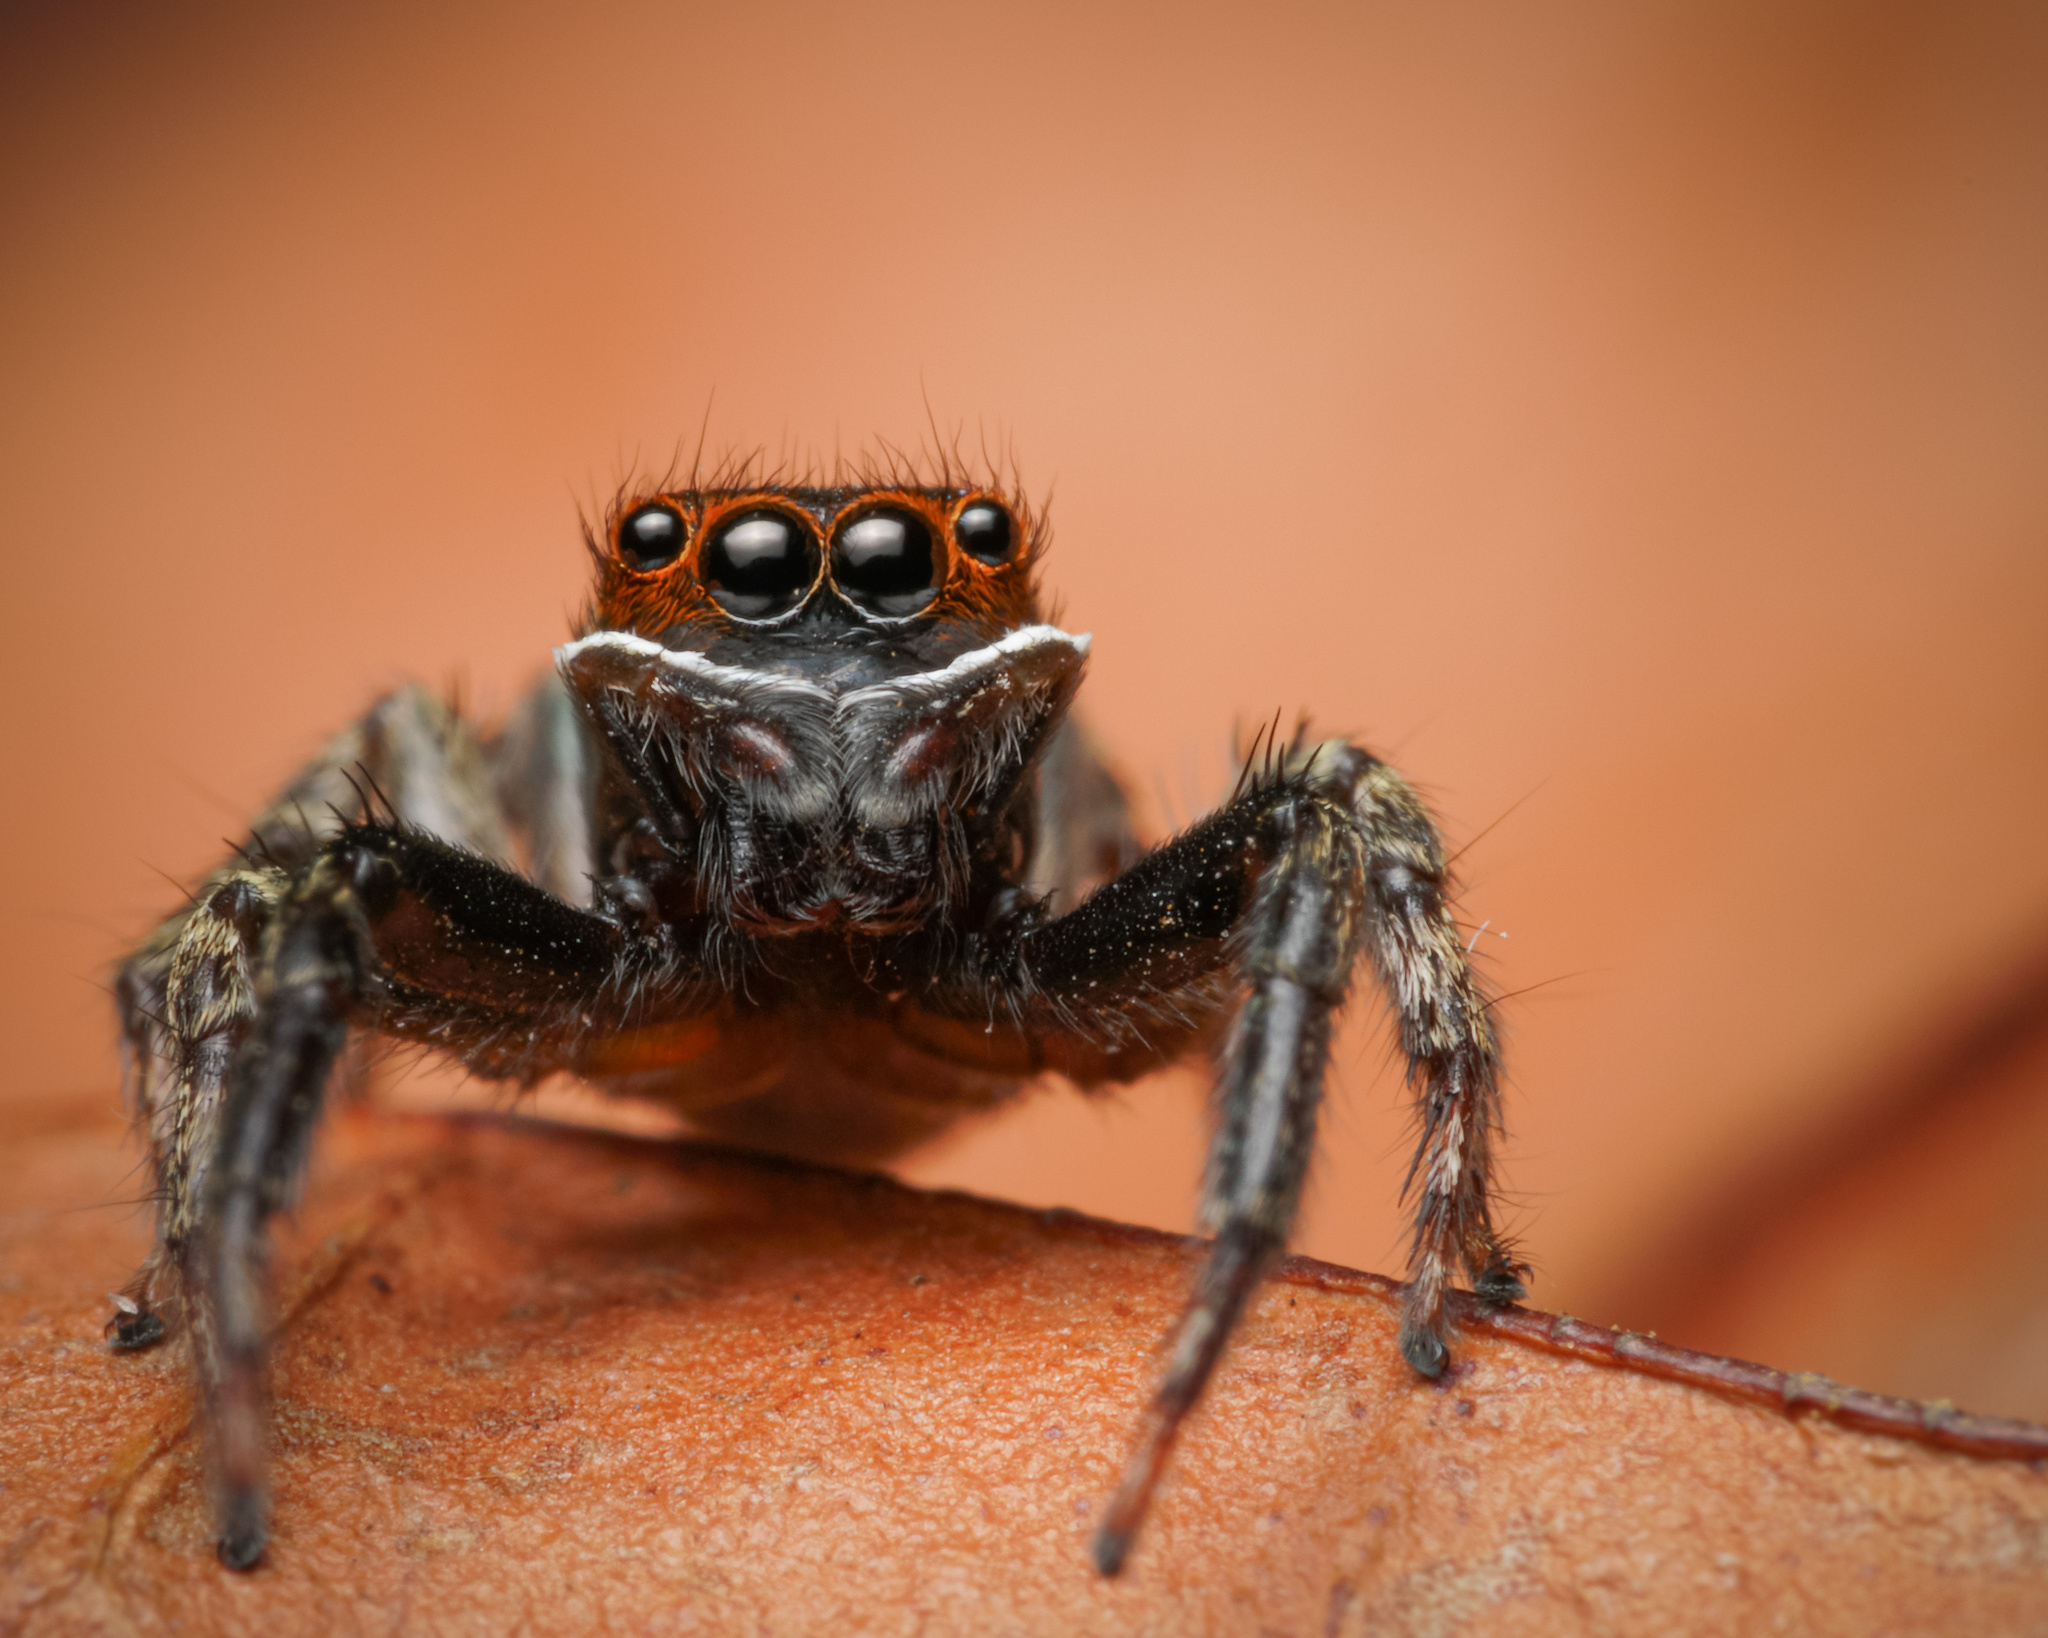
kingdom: Animalia
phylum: Arthropoda
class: Arachnida
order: Araneae
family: Salticidae
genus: Hasarius
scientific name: Hasarius adansoni
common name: Jumping spider
